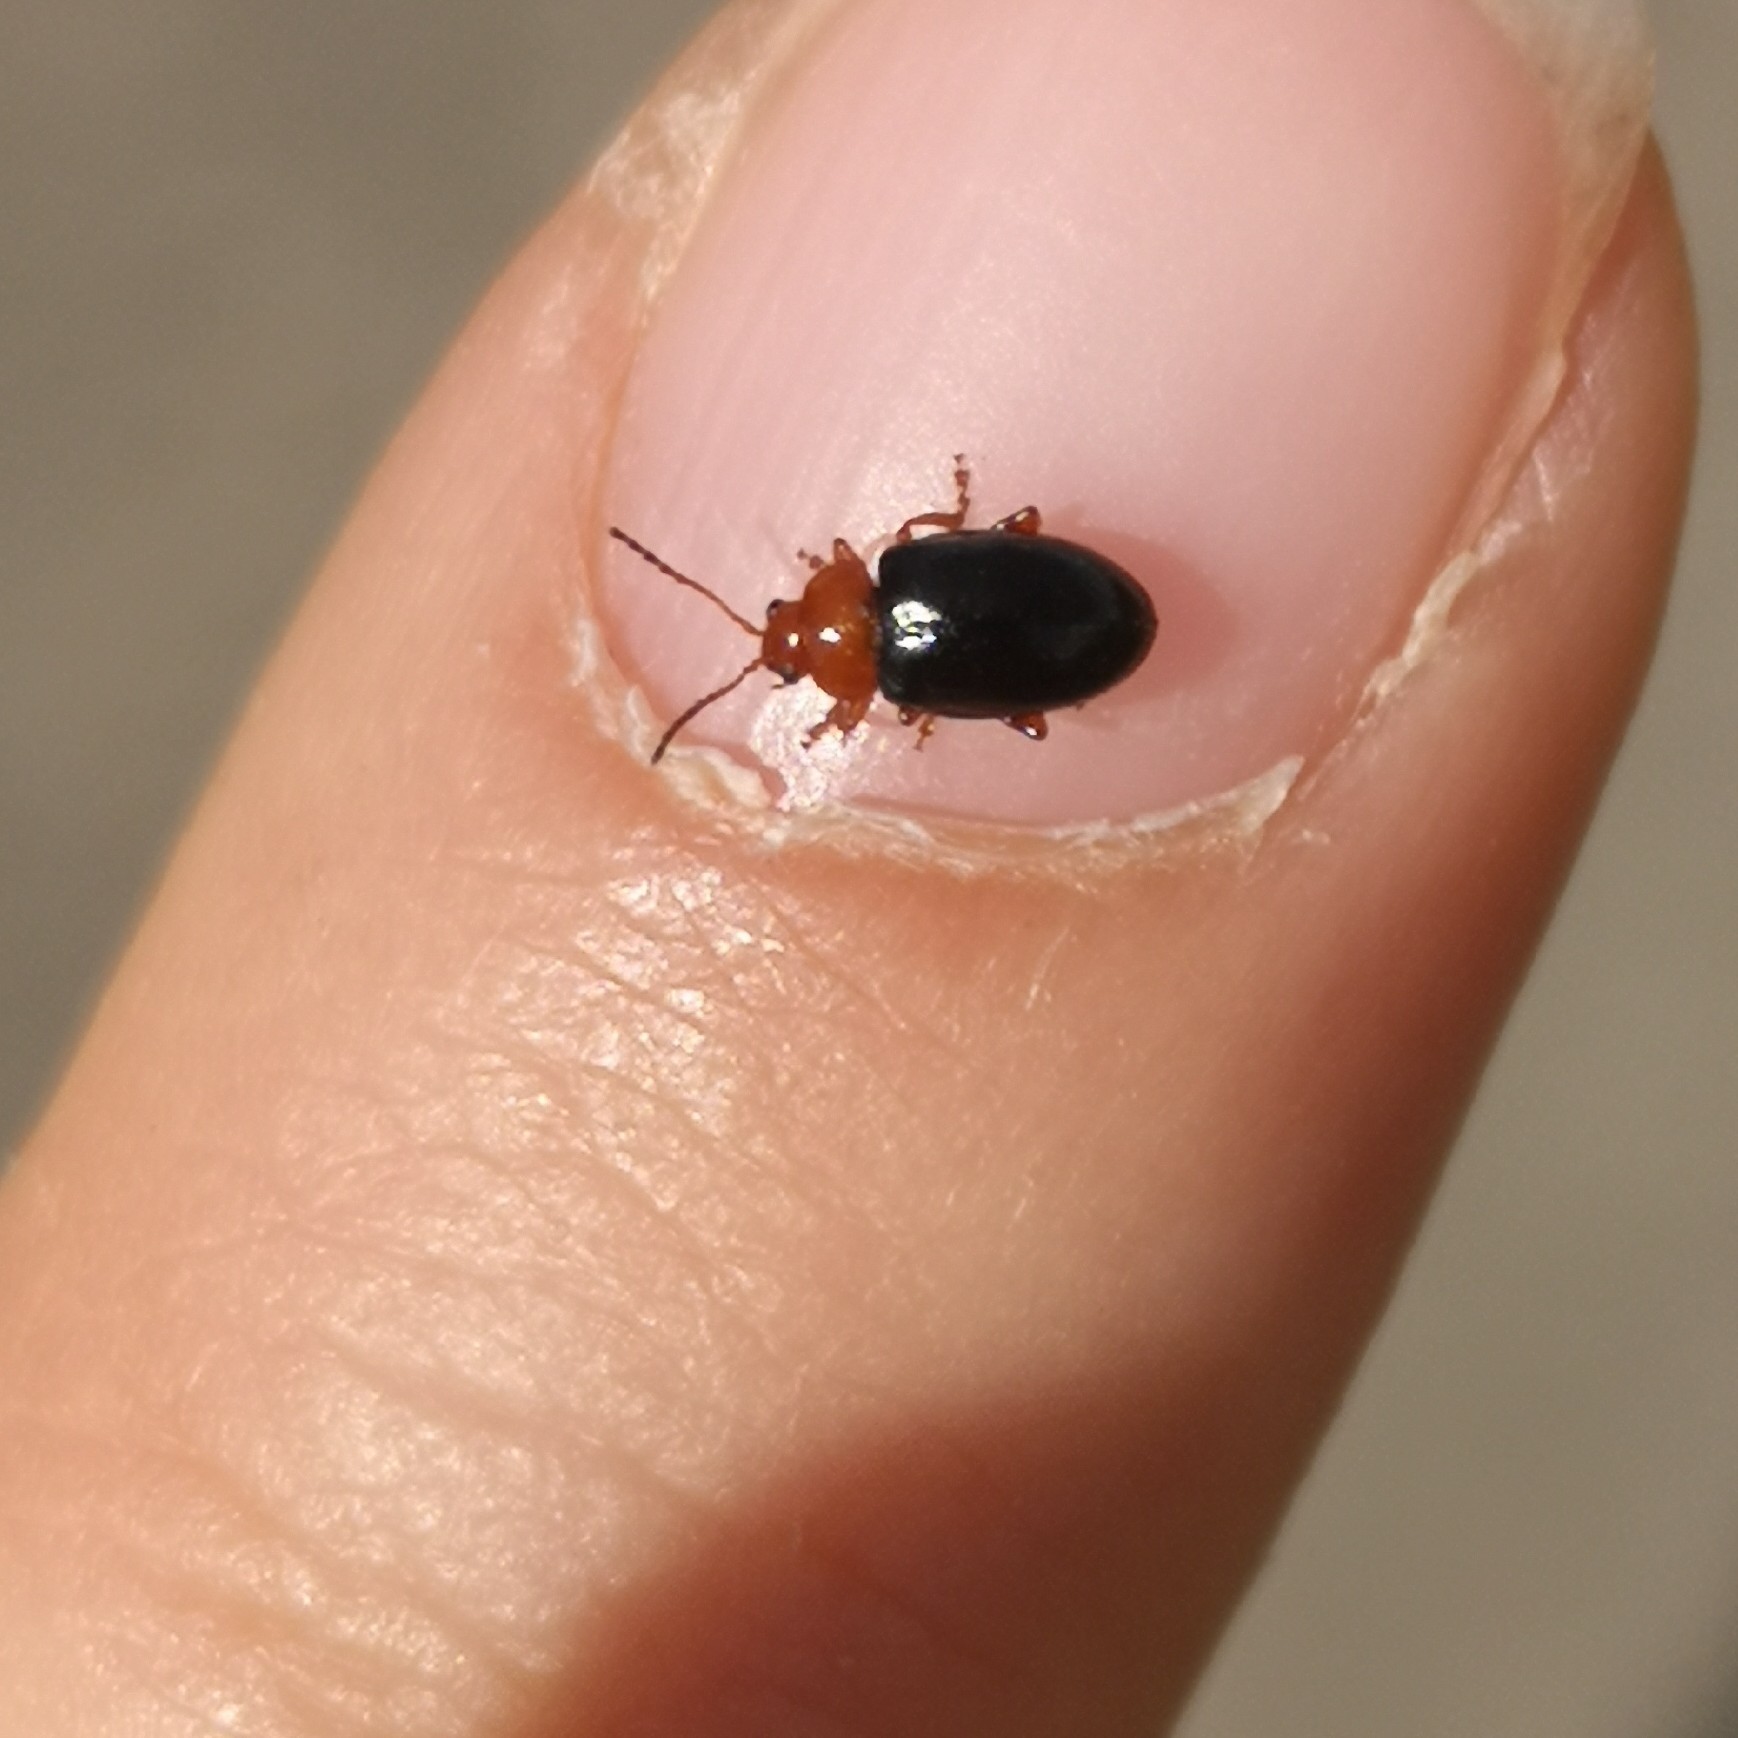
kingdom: Animalia
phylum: Arthropoda
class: Insecta
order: Coleoptera
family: Chrysomelidae
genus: Podagrica
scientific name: Podagrica fuscicornis
